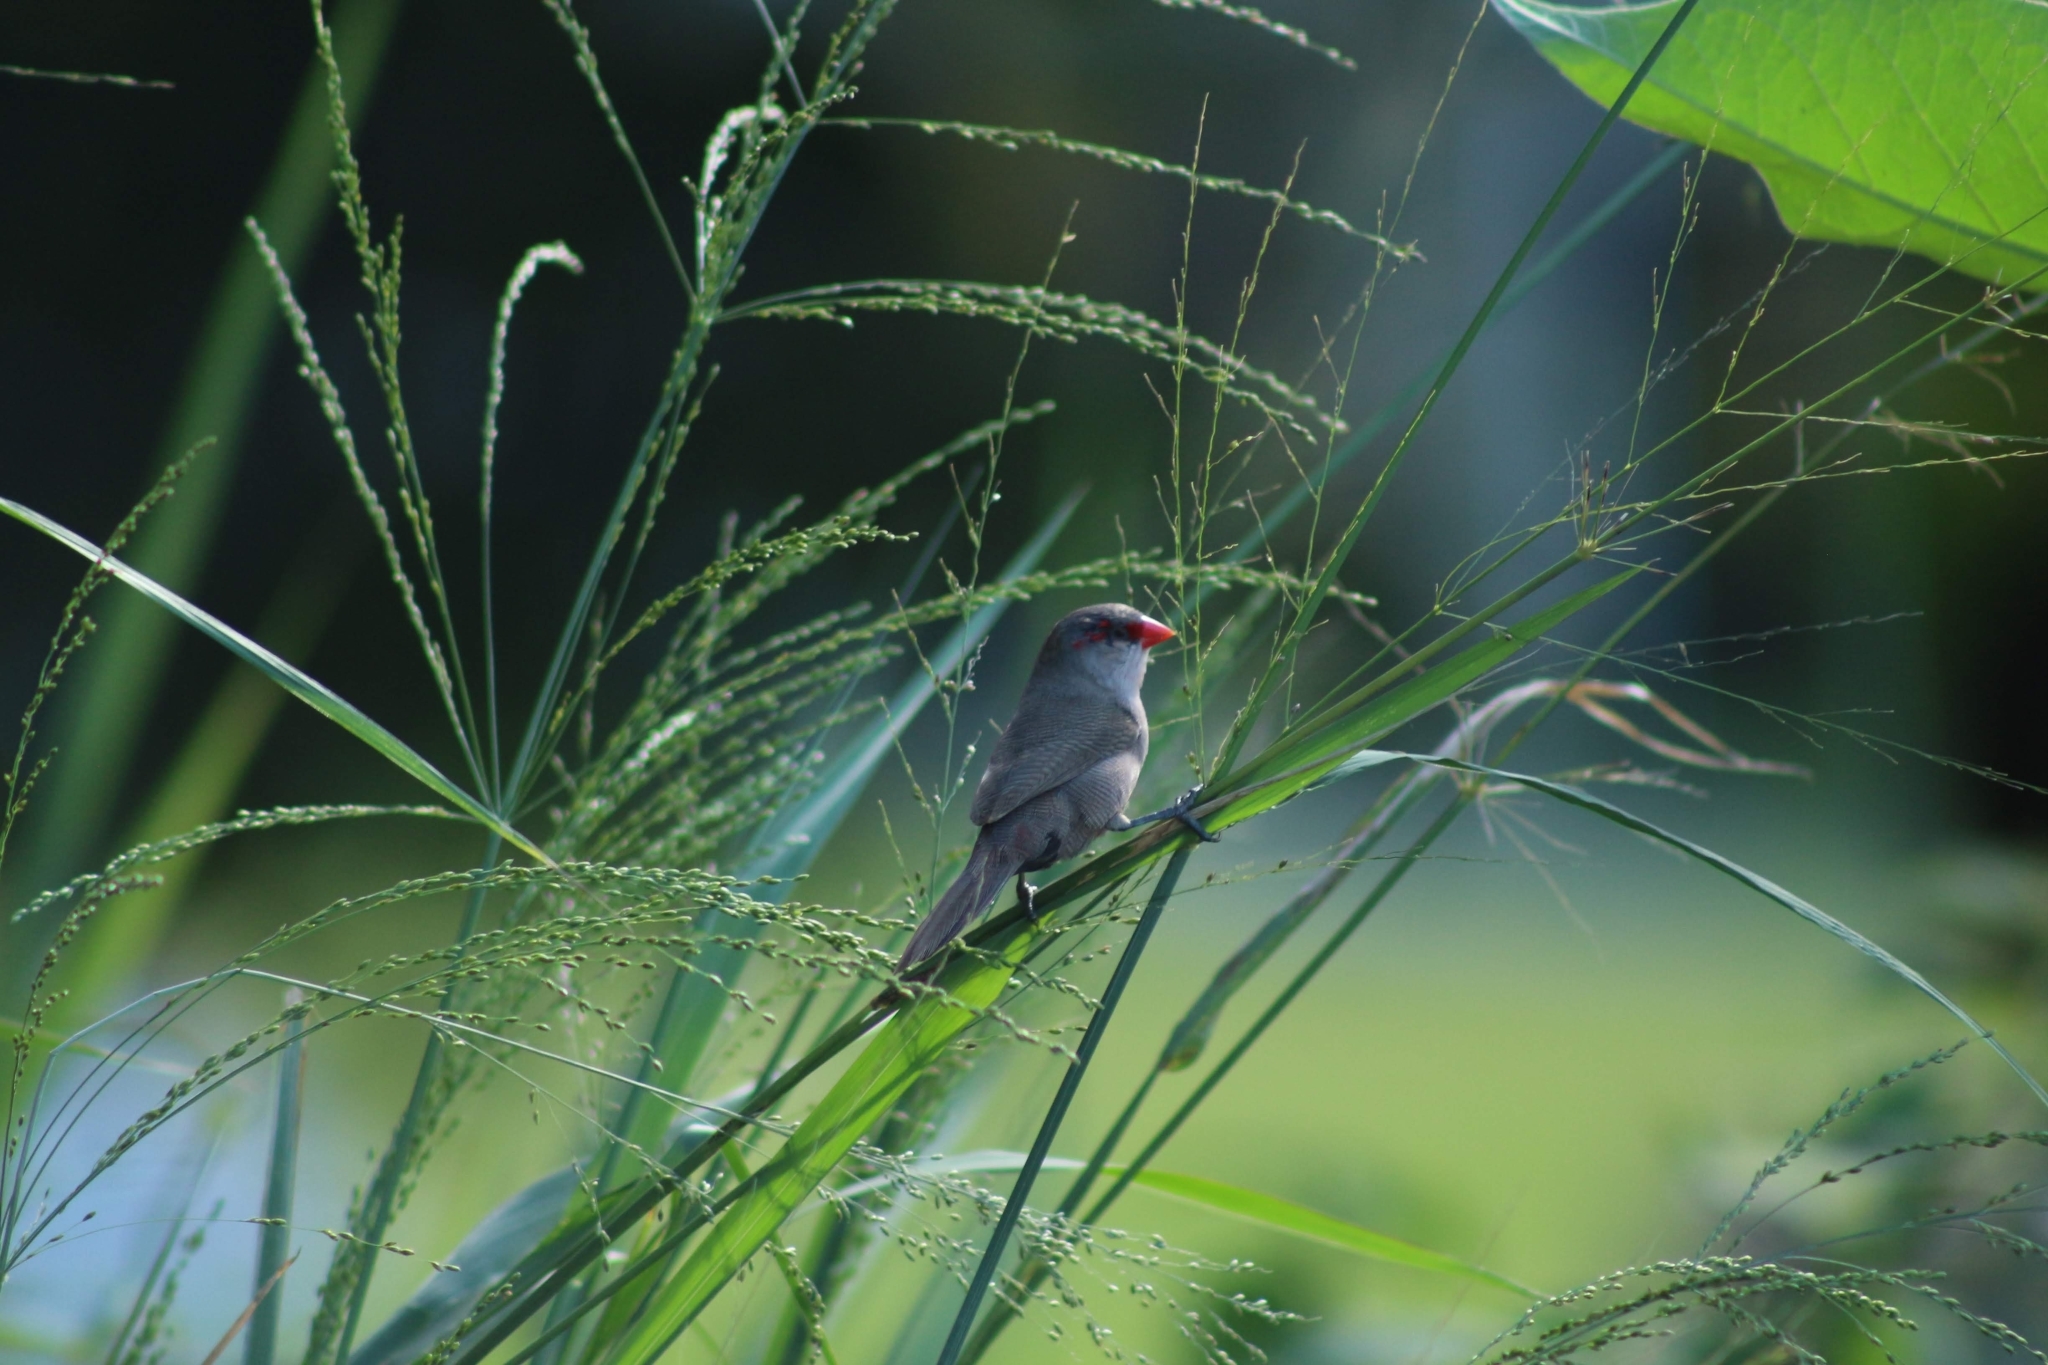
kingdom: Animalia
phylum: Chordata
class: Aves
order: Passeriformes
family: Estrildidae
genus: Estrilda
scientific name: Estrilda astrild
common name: Common waxbill
